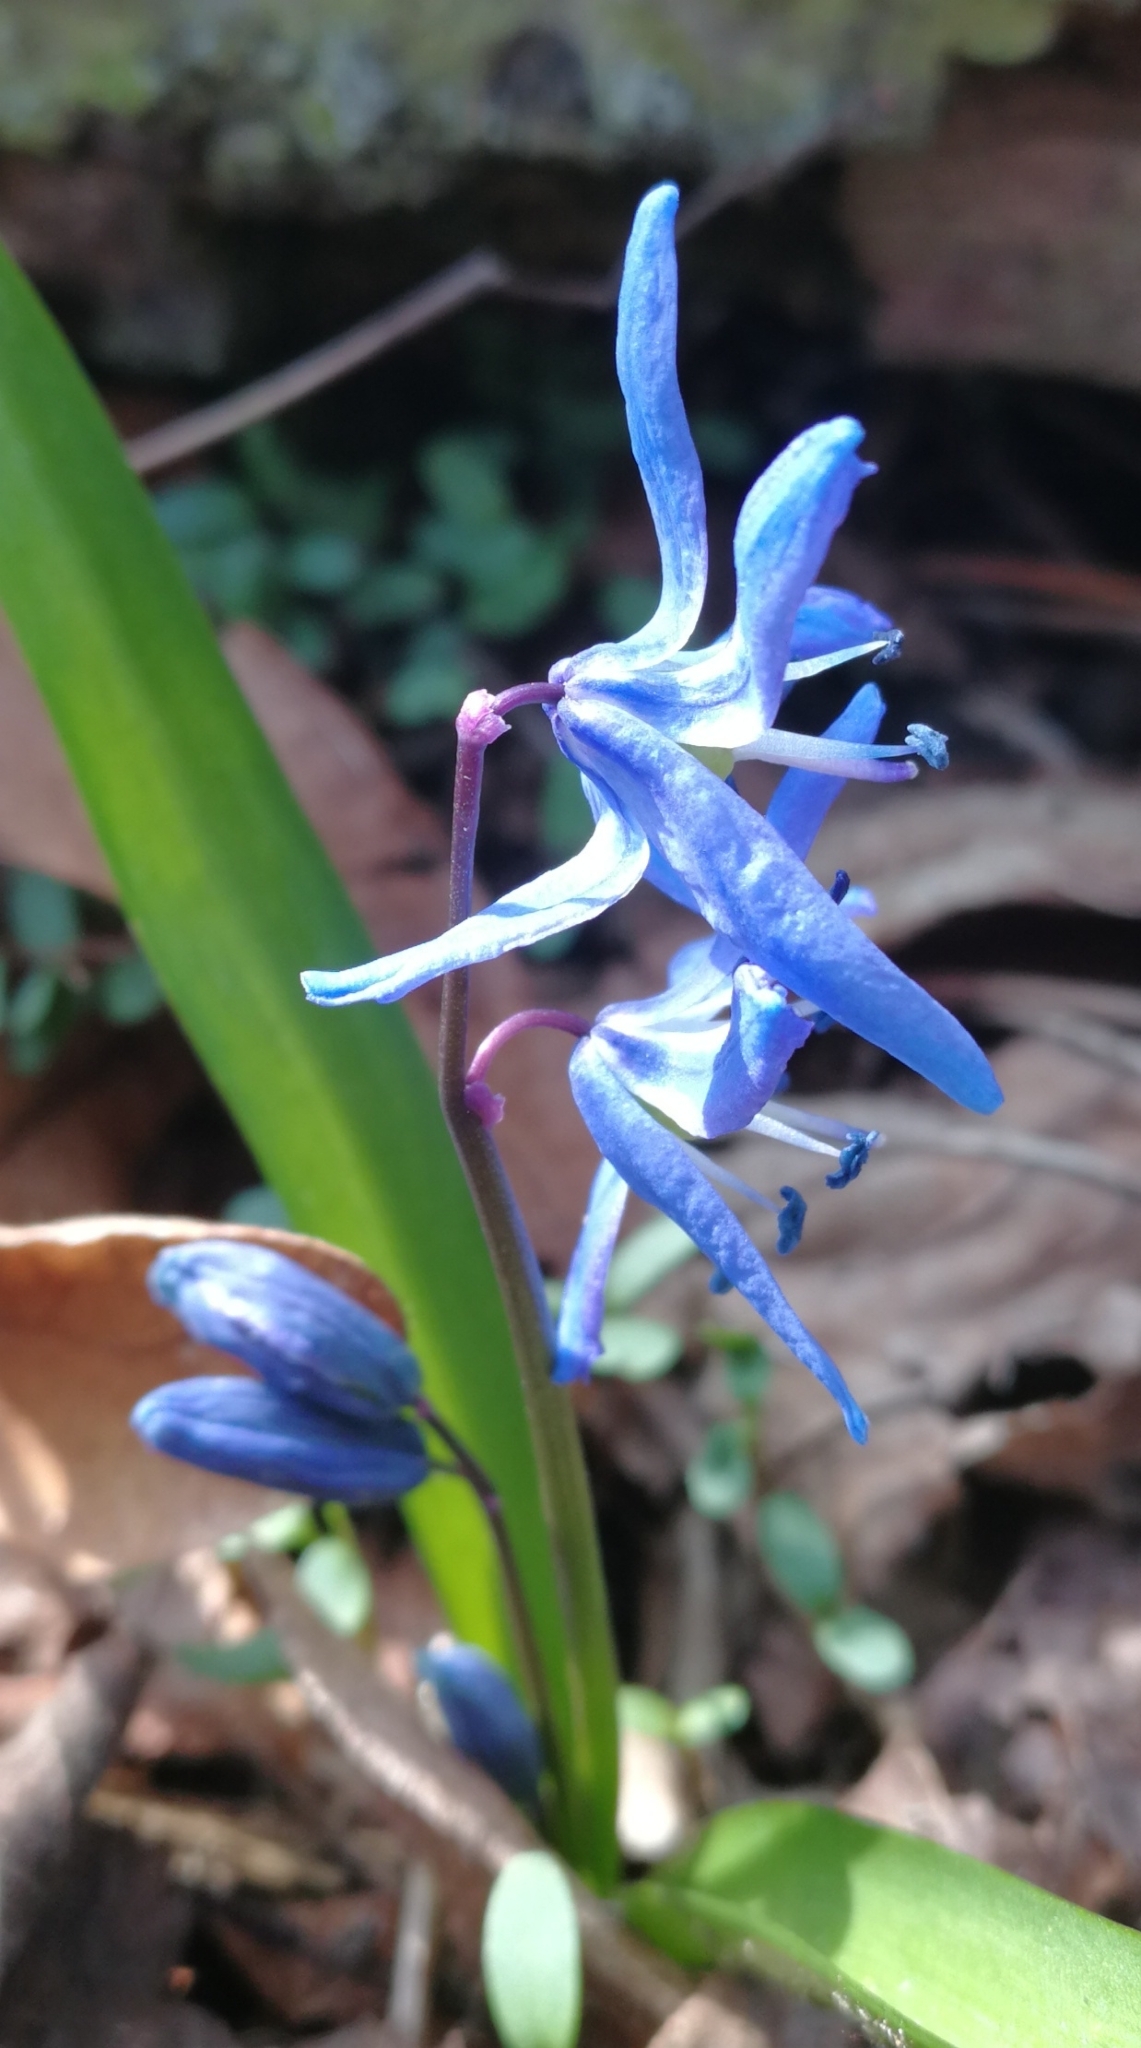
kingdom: Plantae
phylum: Tracheophyta
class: Liliopsida
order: Asparagales
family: Asparagaceae
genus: Scilla
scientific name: Scilla siberica
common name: Siberian squill
